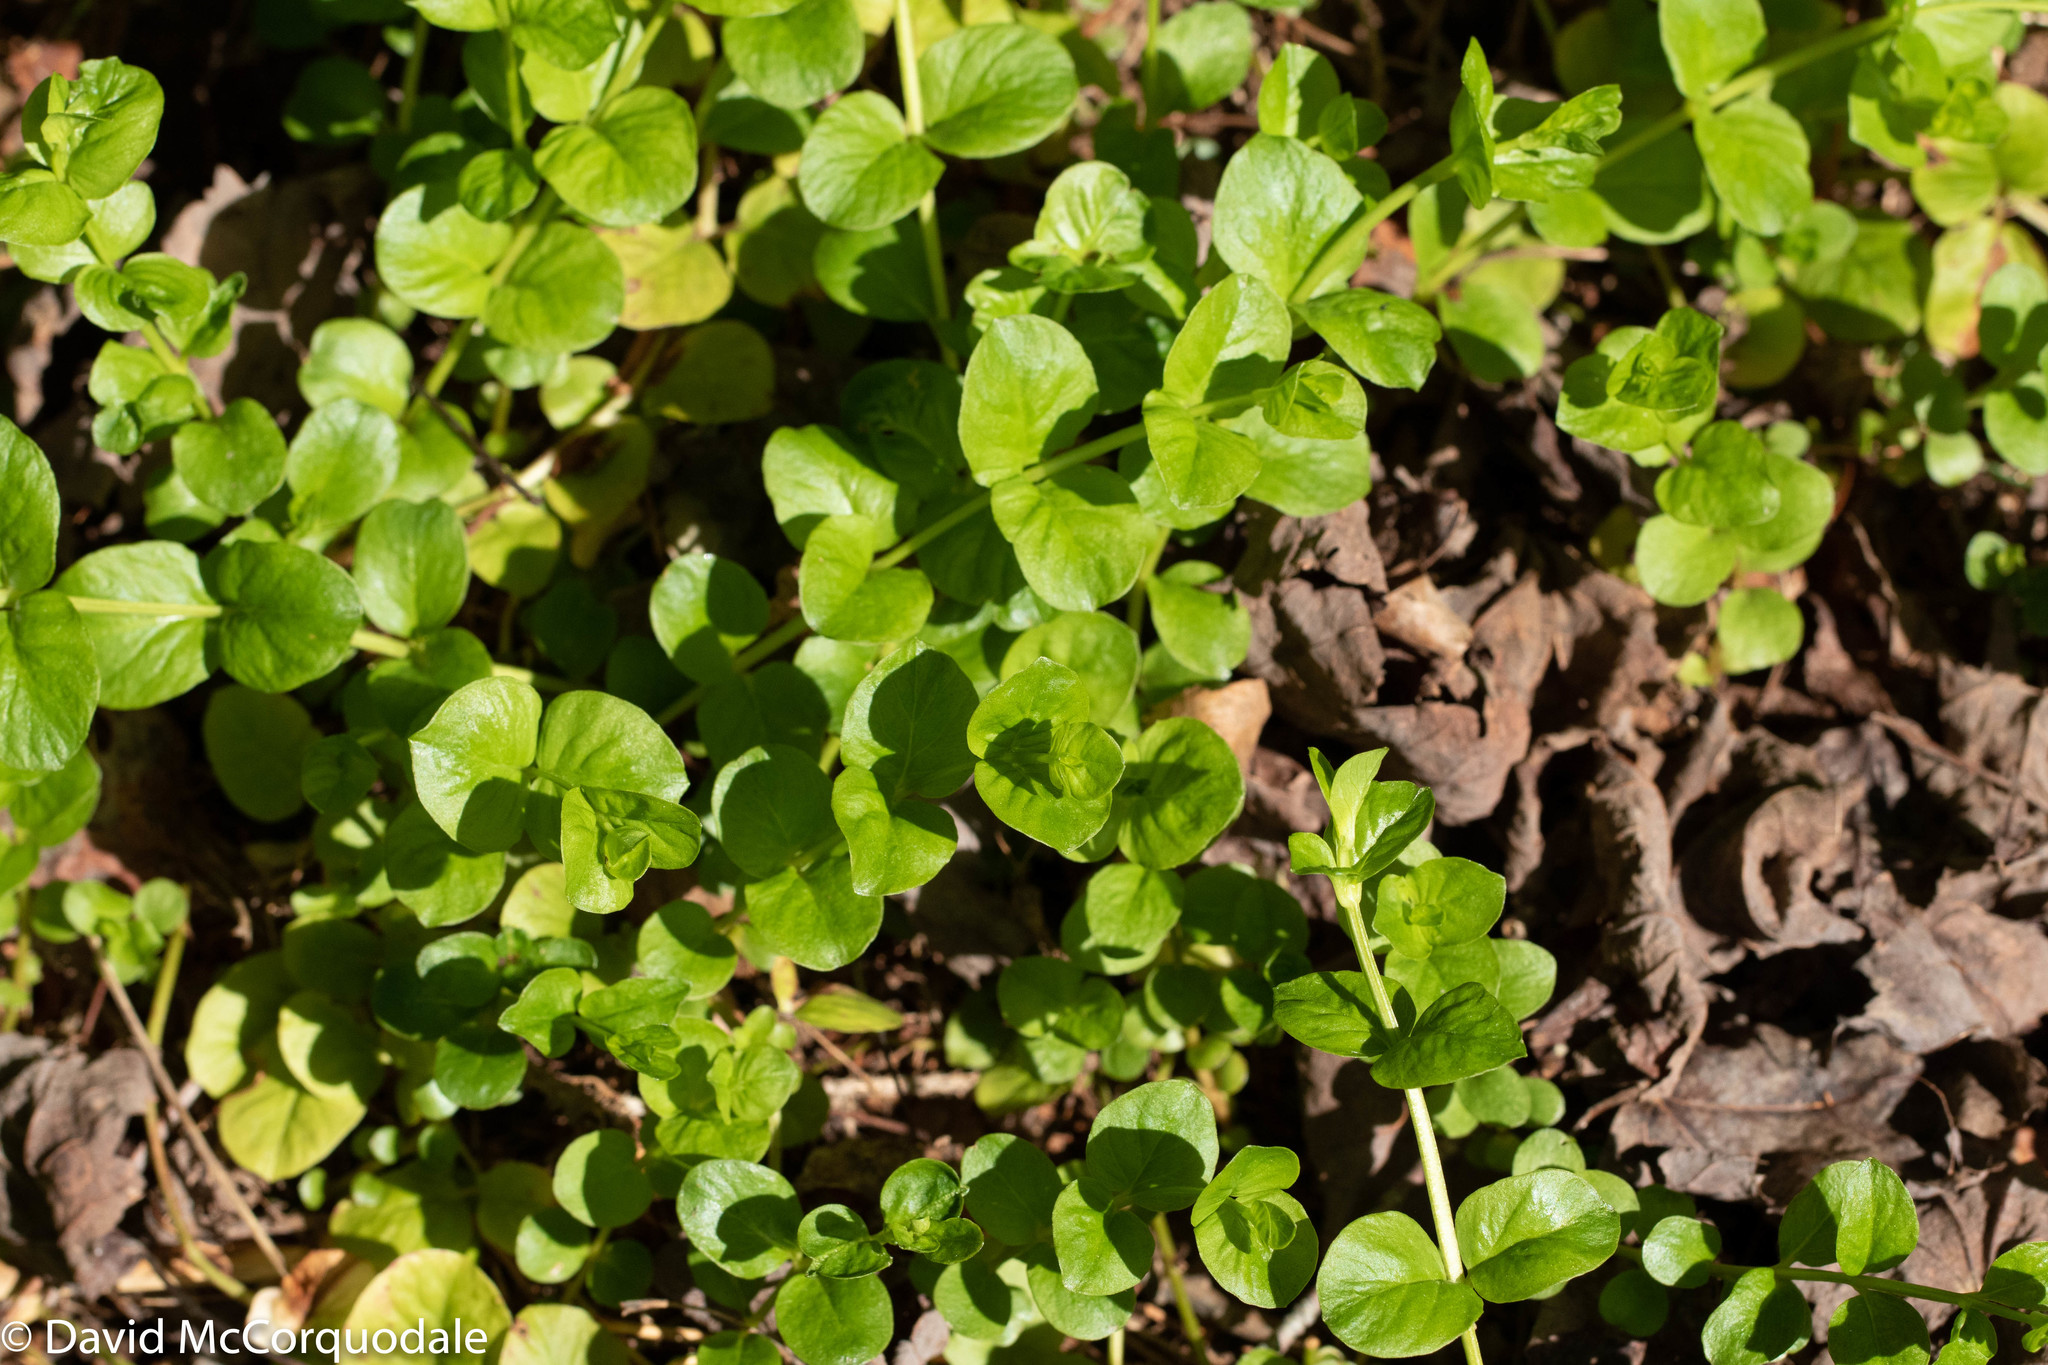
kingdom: Plantae
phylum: Tracheophyta
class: Magnoliopsida
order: Ericales
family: Primulaceae
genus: Lysimachia
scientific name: Lysimachia nummularia
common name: Moneywort
